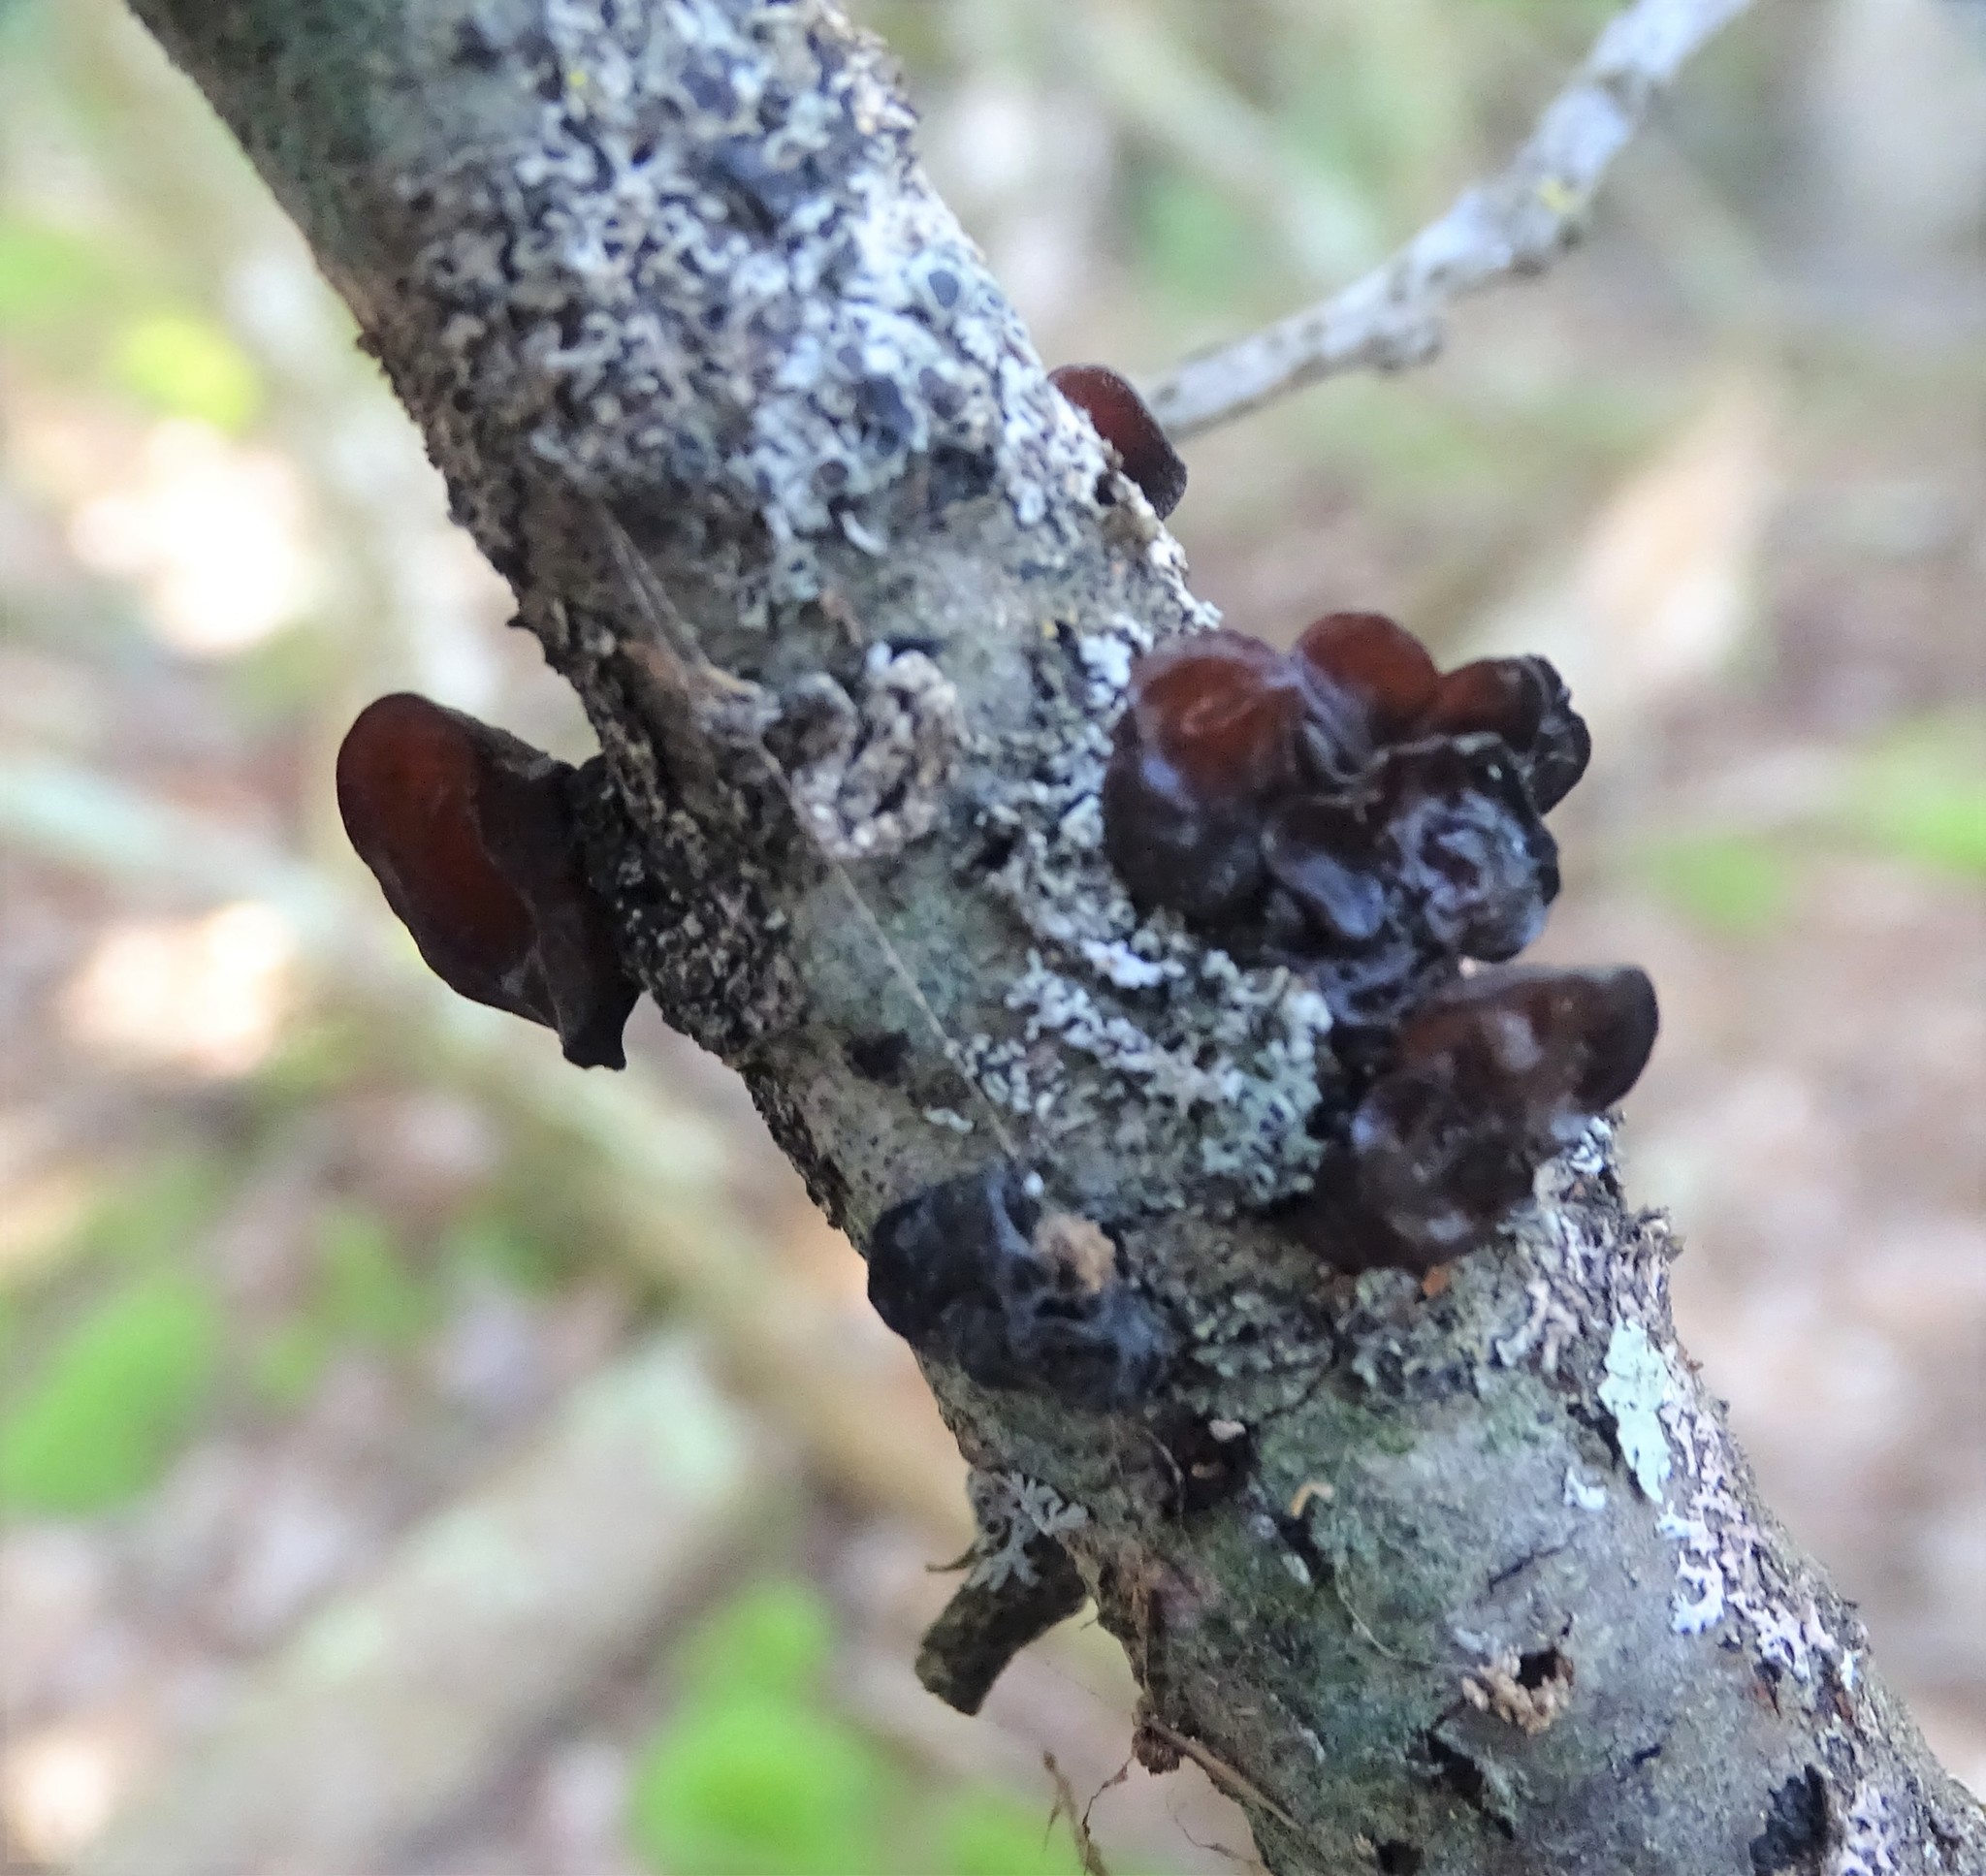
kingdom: Fungi
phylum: Basidiomycota
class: Agaricomycetes
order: Auriculariales
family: Auriculariaceae
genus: Exidia
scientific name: Exidia
